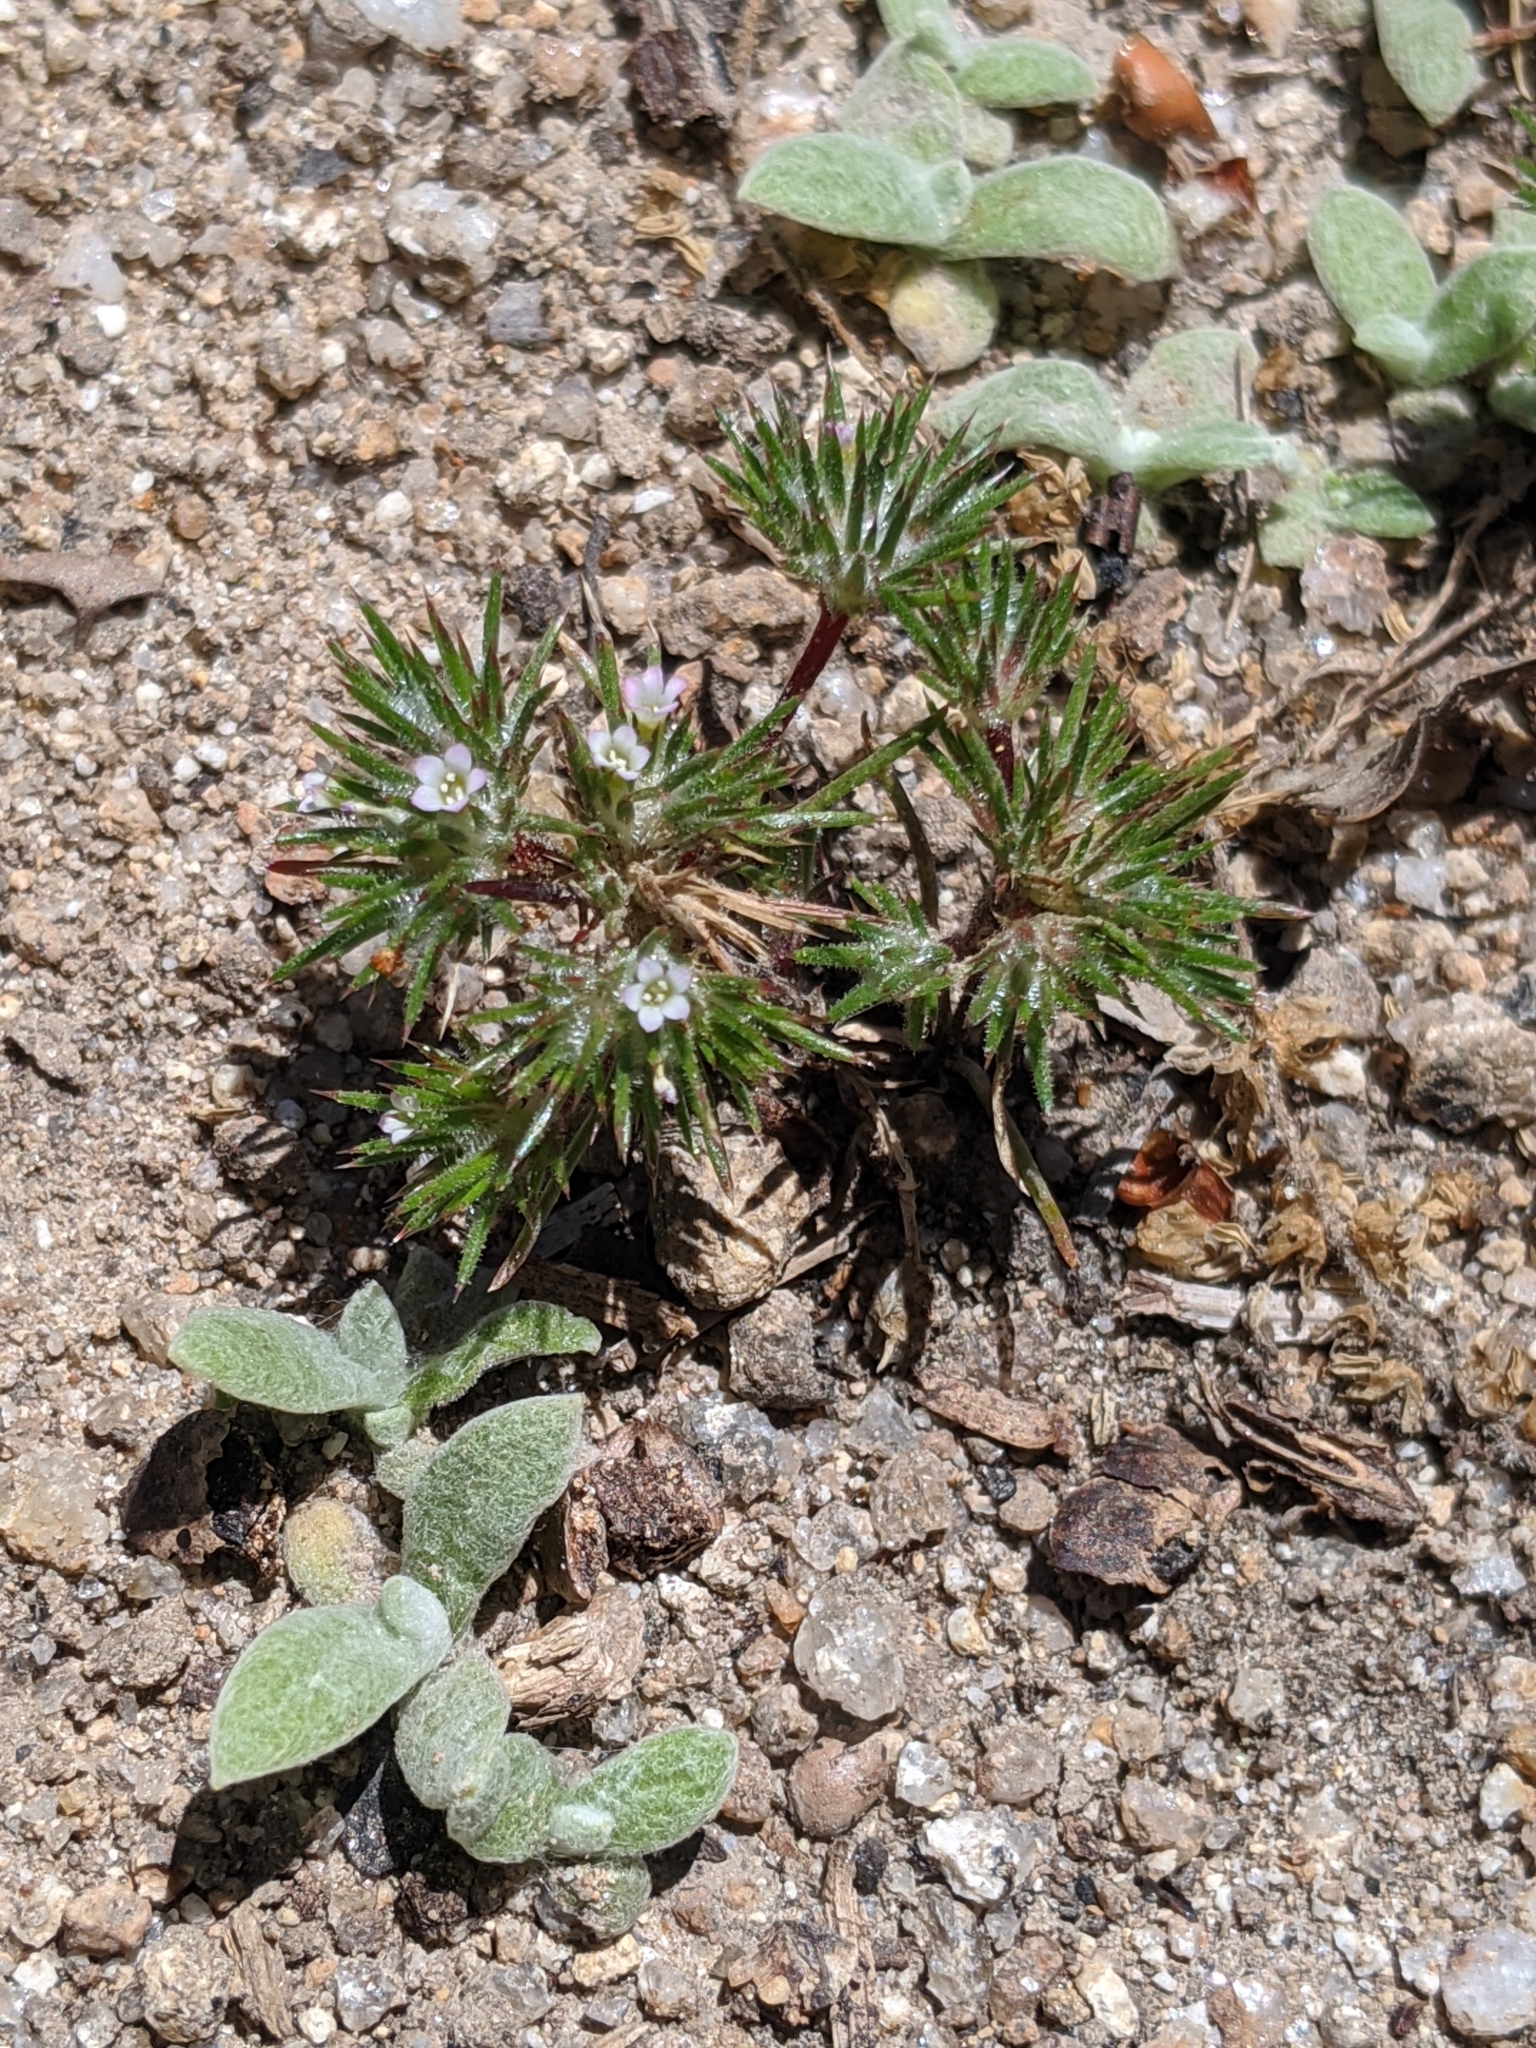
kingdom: Plantae
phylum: Tracheophyta
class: Magnoliopsida
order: Ericales
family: Polemoniaceae
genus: Navarretia
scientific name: Navarretia divaricata
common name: Mountain navarretia
